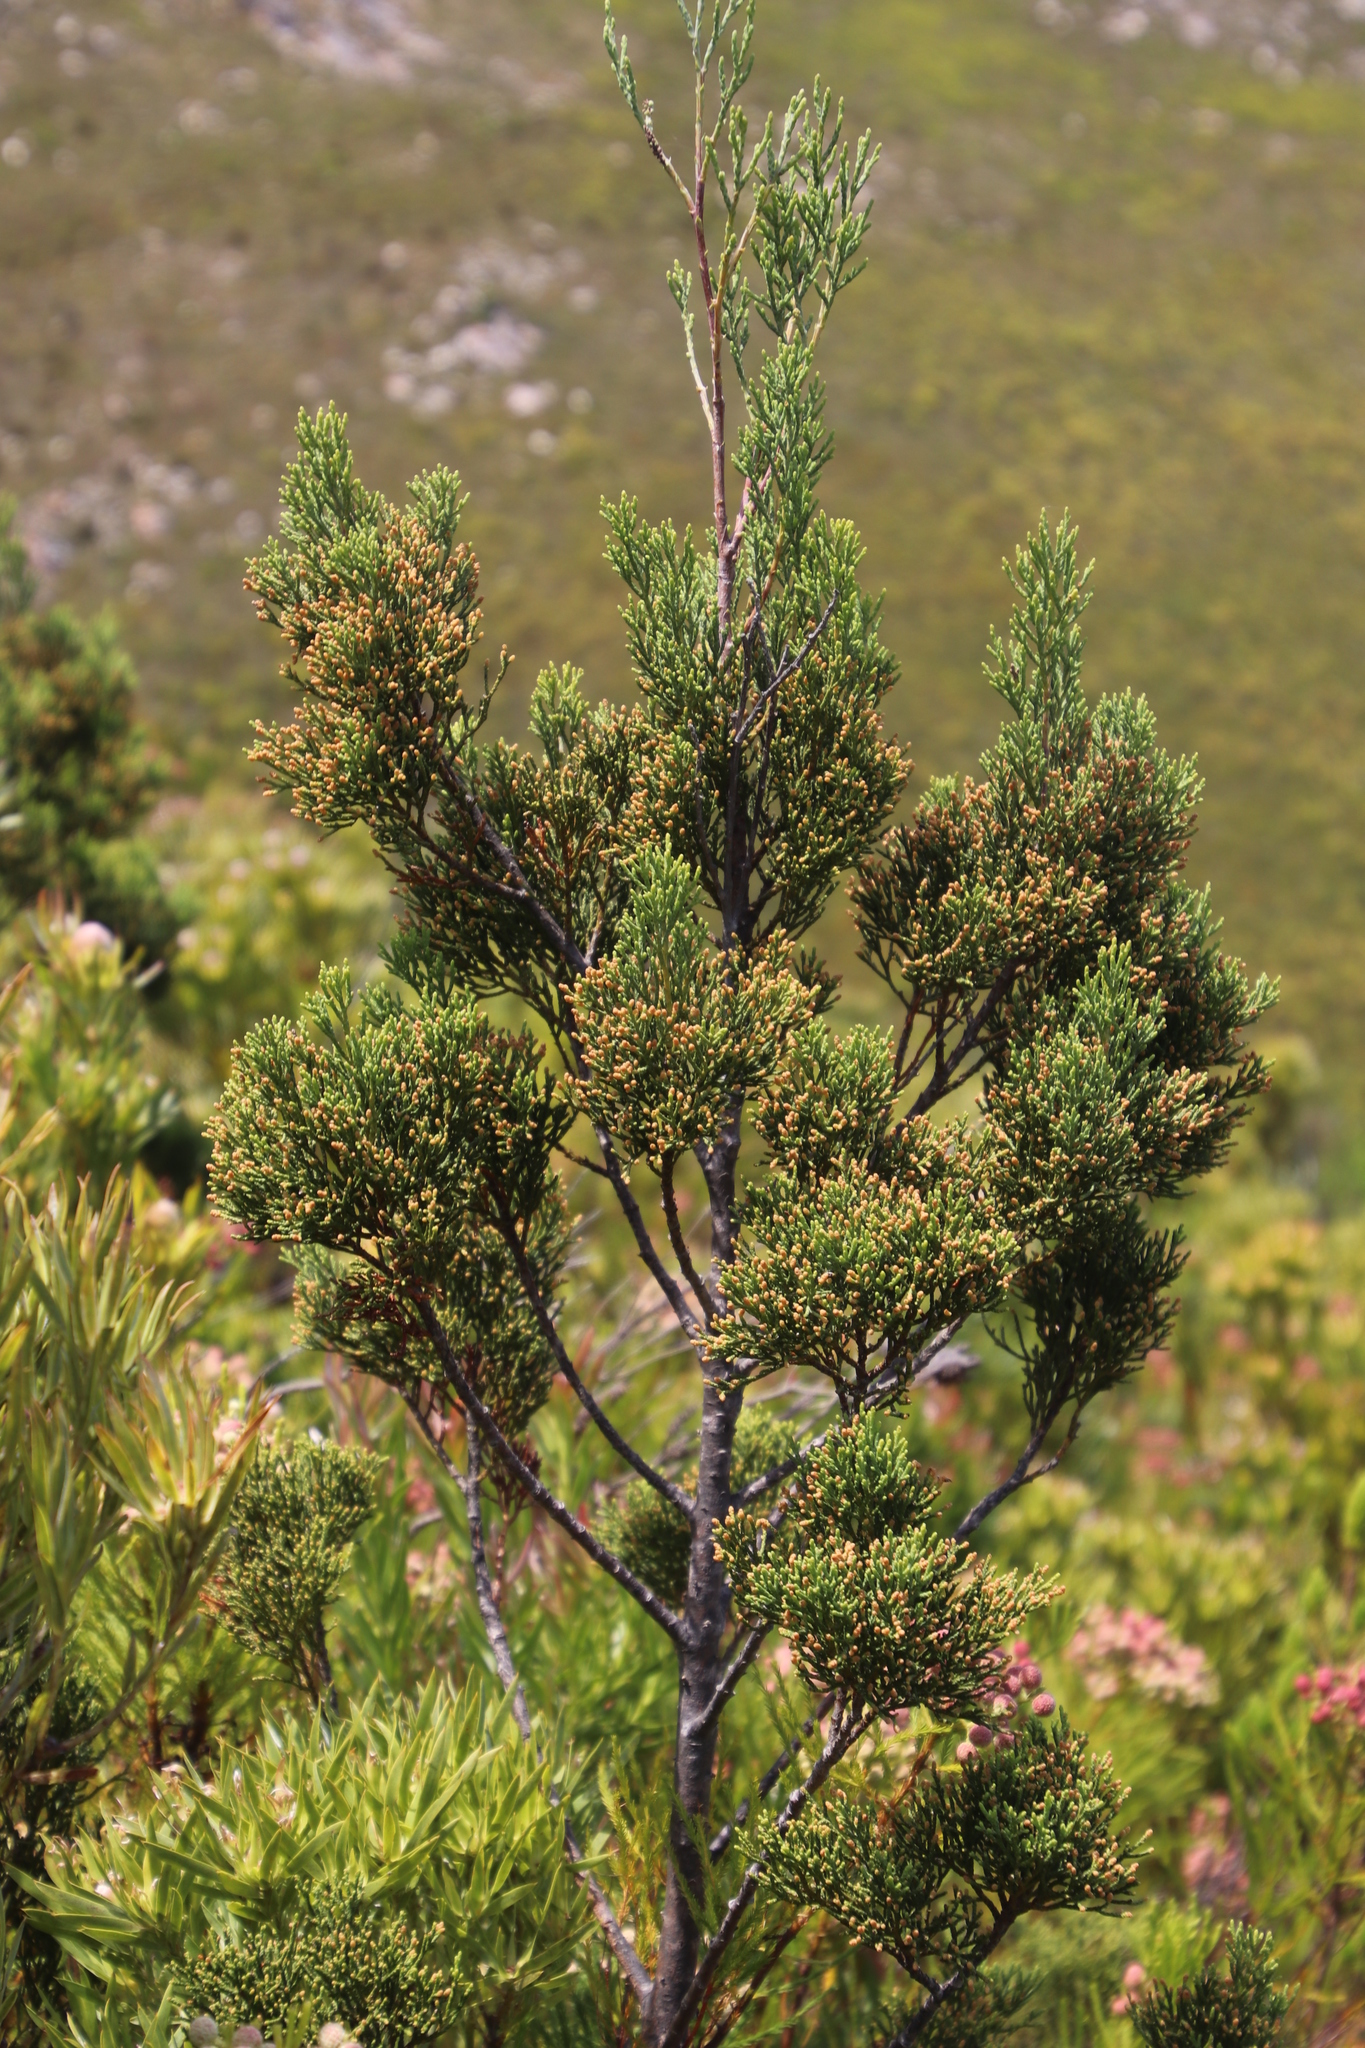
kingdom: Plantae
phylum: Tracheophyta
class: Pinopsida
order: Pinales
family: Cupressaceae
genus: Widdringtonia
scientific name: Widdringtonia nodiflora
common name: Cape cypress
